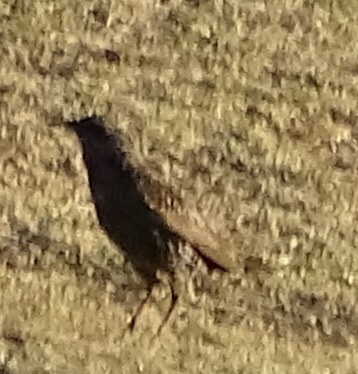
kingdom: Animalia
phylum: Chordata
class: Aves
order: Passeriformes
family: Sturnidae
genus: Sturnus
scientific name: Sturnus vulgaris
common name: Common starling
